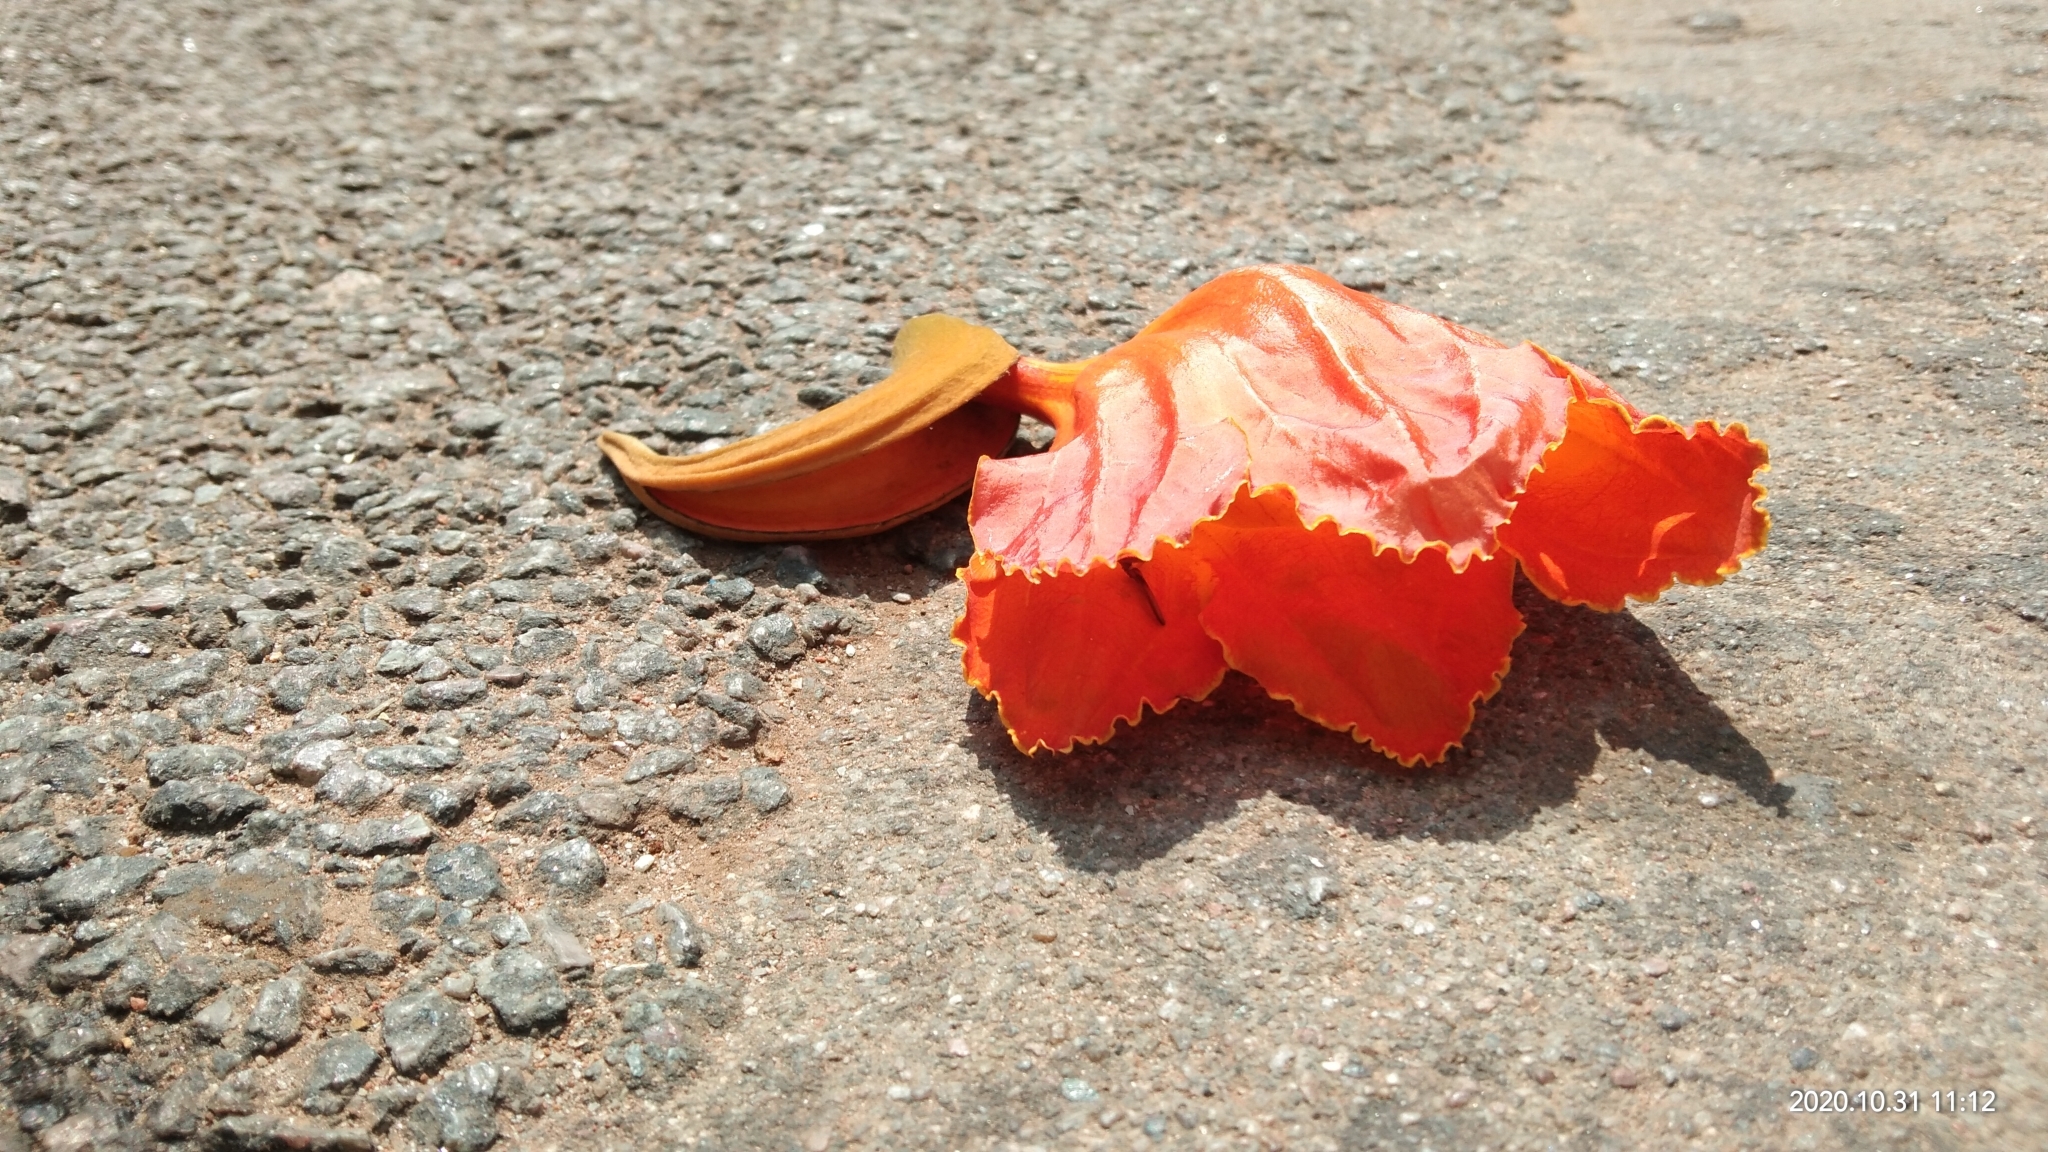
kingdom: Plantae
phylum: Tracheophyta
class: Magnoliopsida
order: Lamiales
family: Bignoniaceae
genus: Spathodea
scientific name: Spathodea campanulata
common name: African tuliptree
